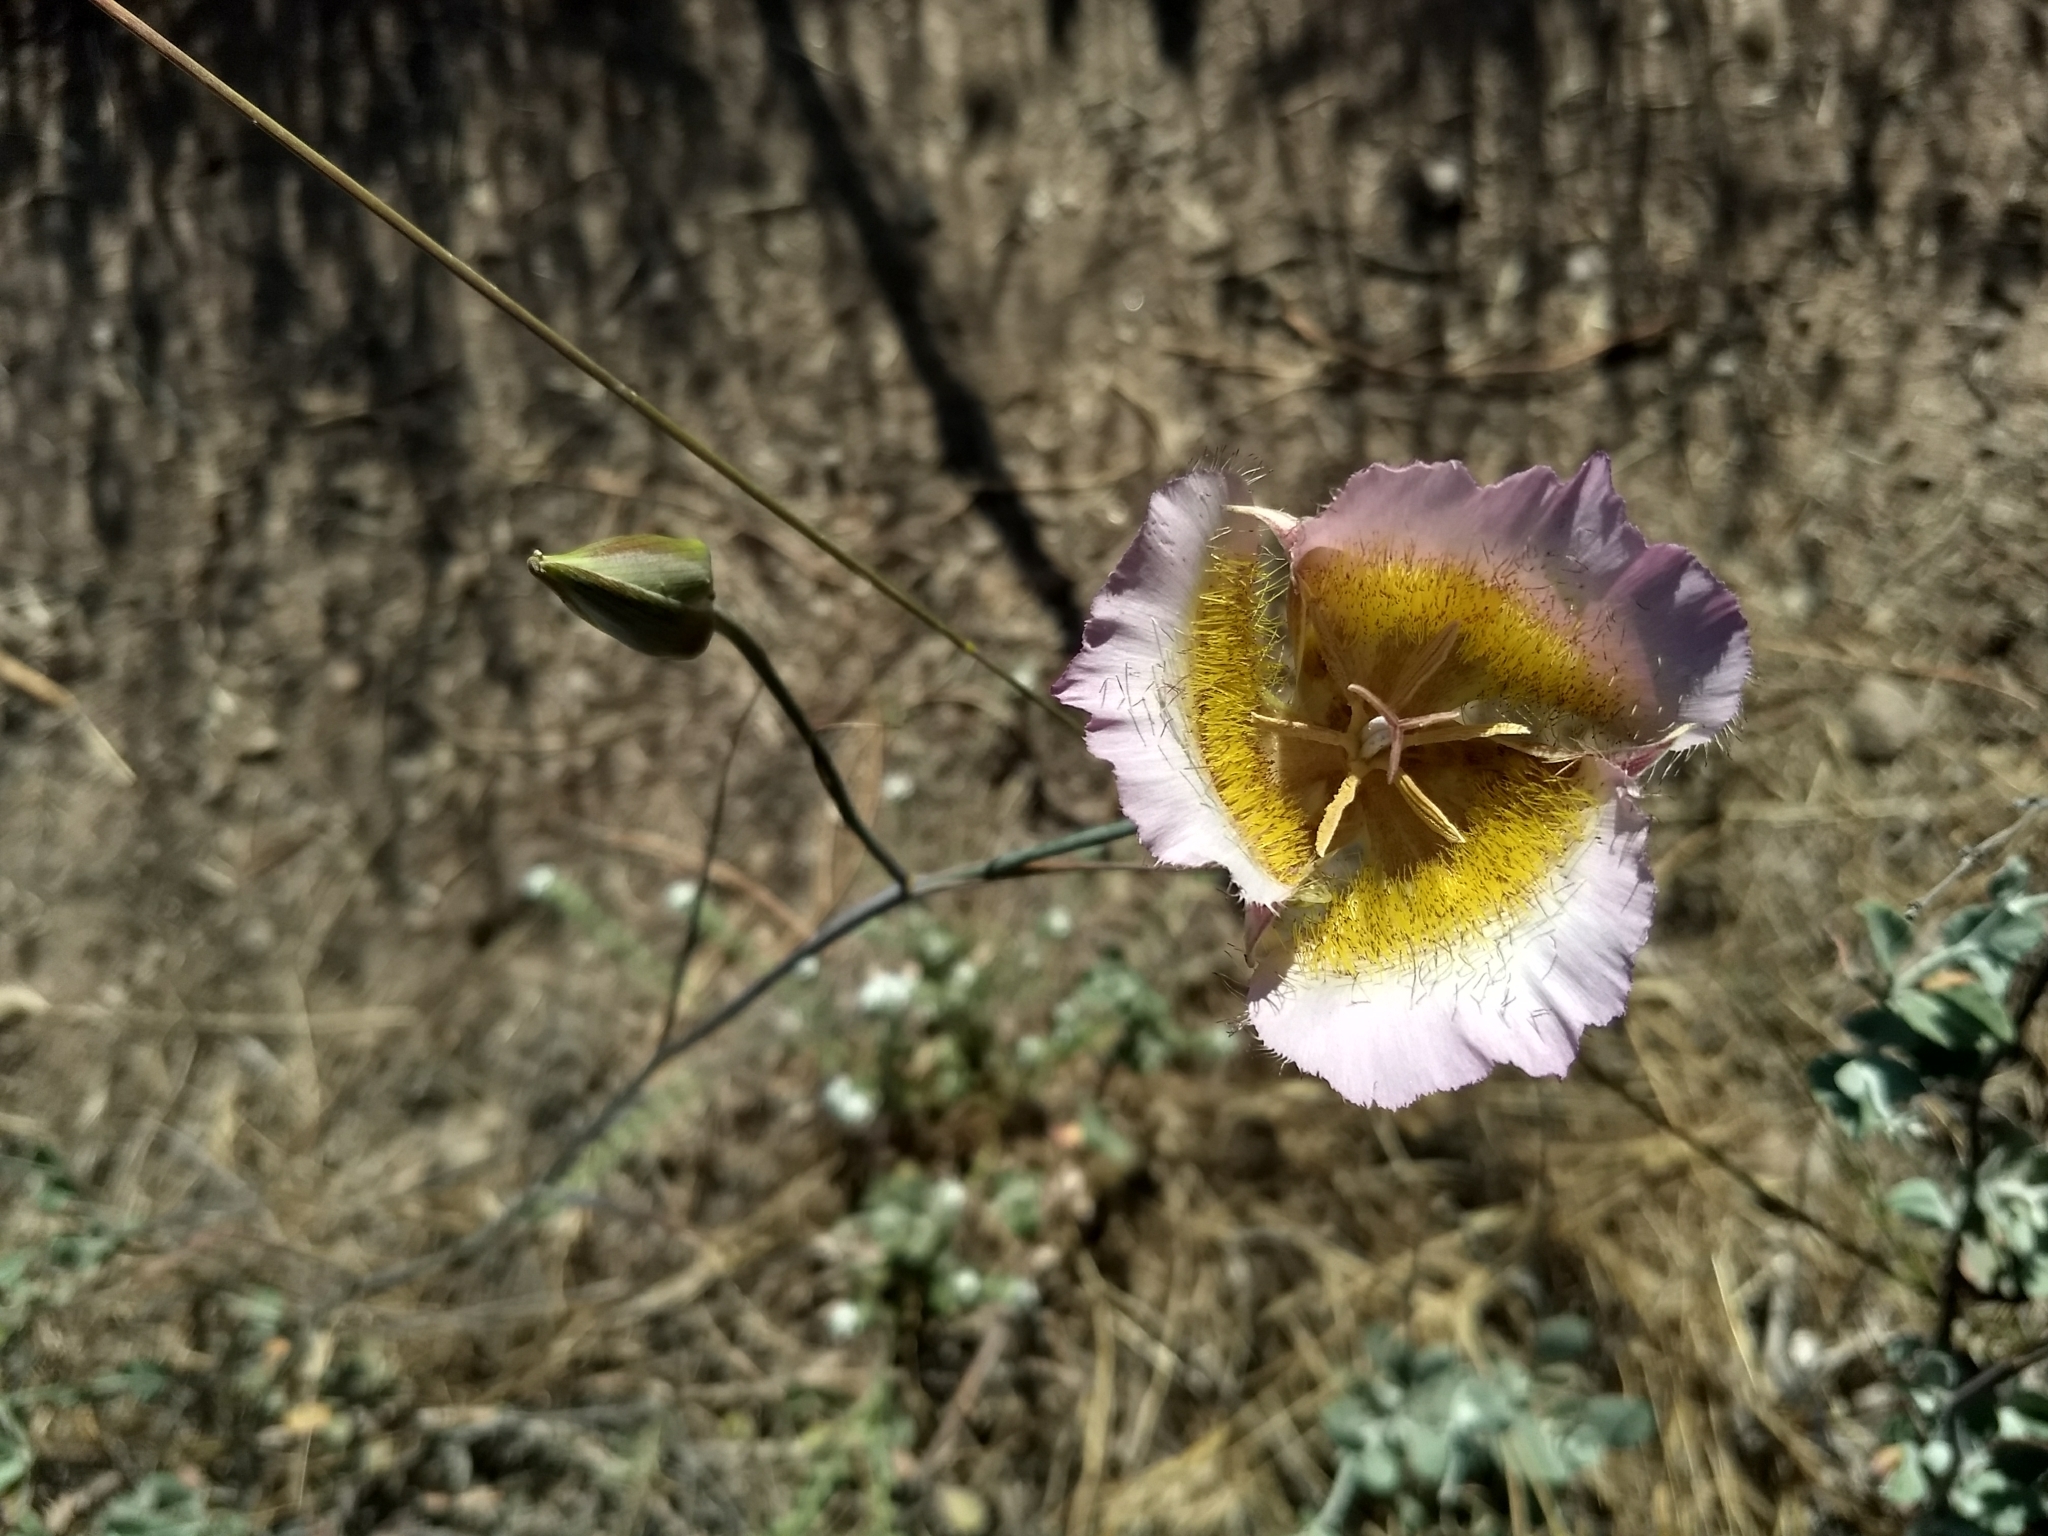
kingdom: Plantae
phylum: Tracheophyta
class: Liliopsida
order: Liliales
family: Liliaceae
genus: Calochortus
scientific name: Calochortus plummerae
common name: Plummer's mariposa-lily
